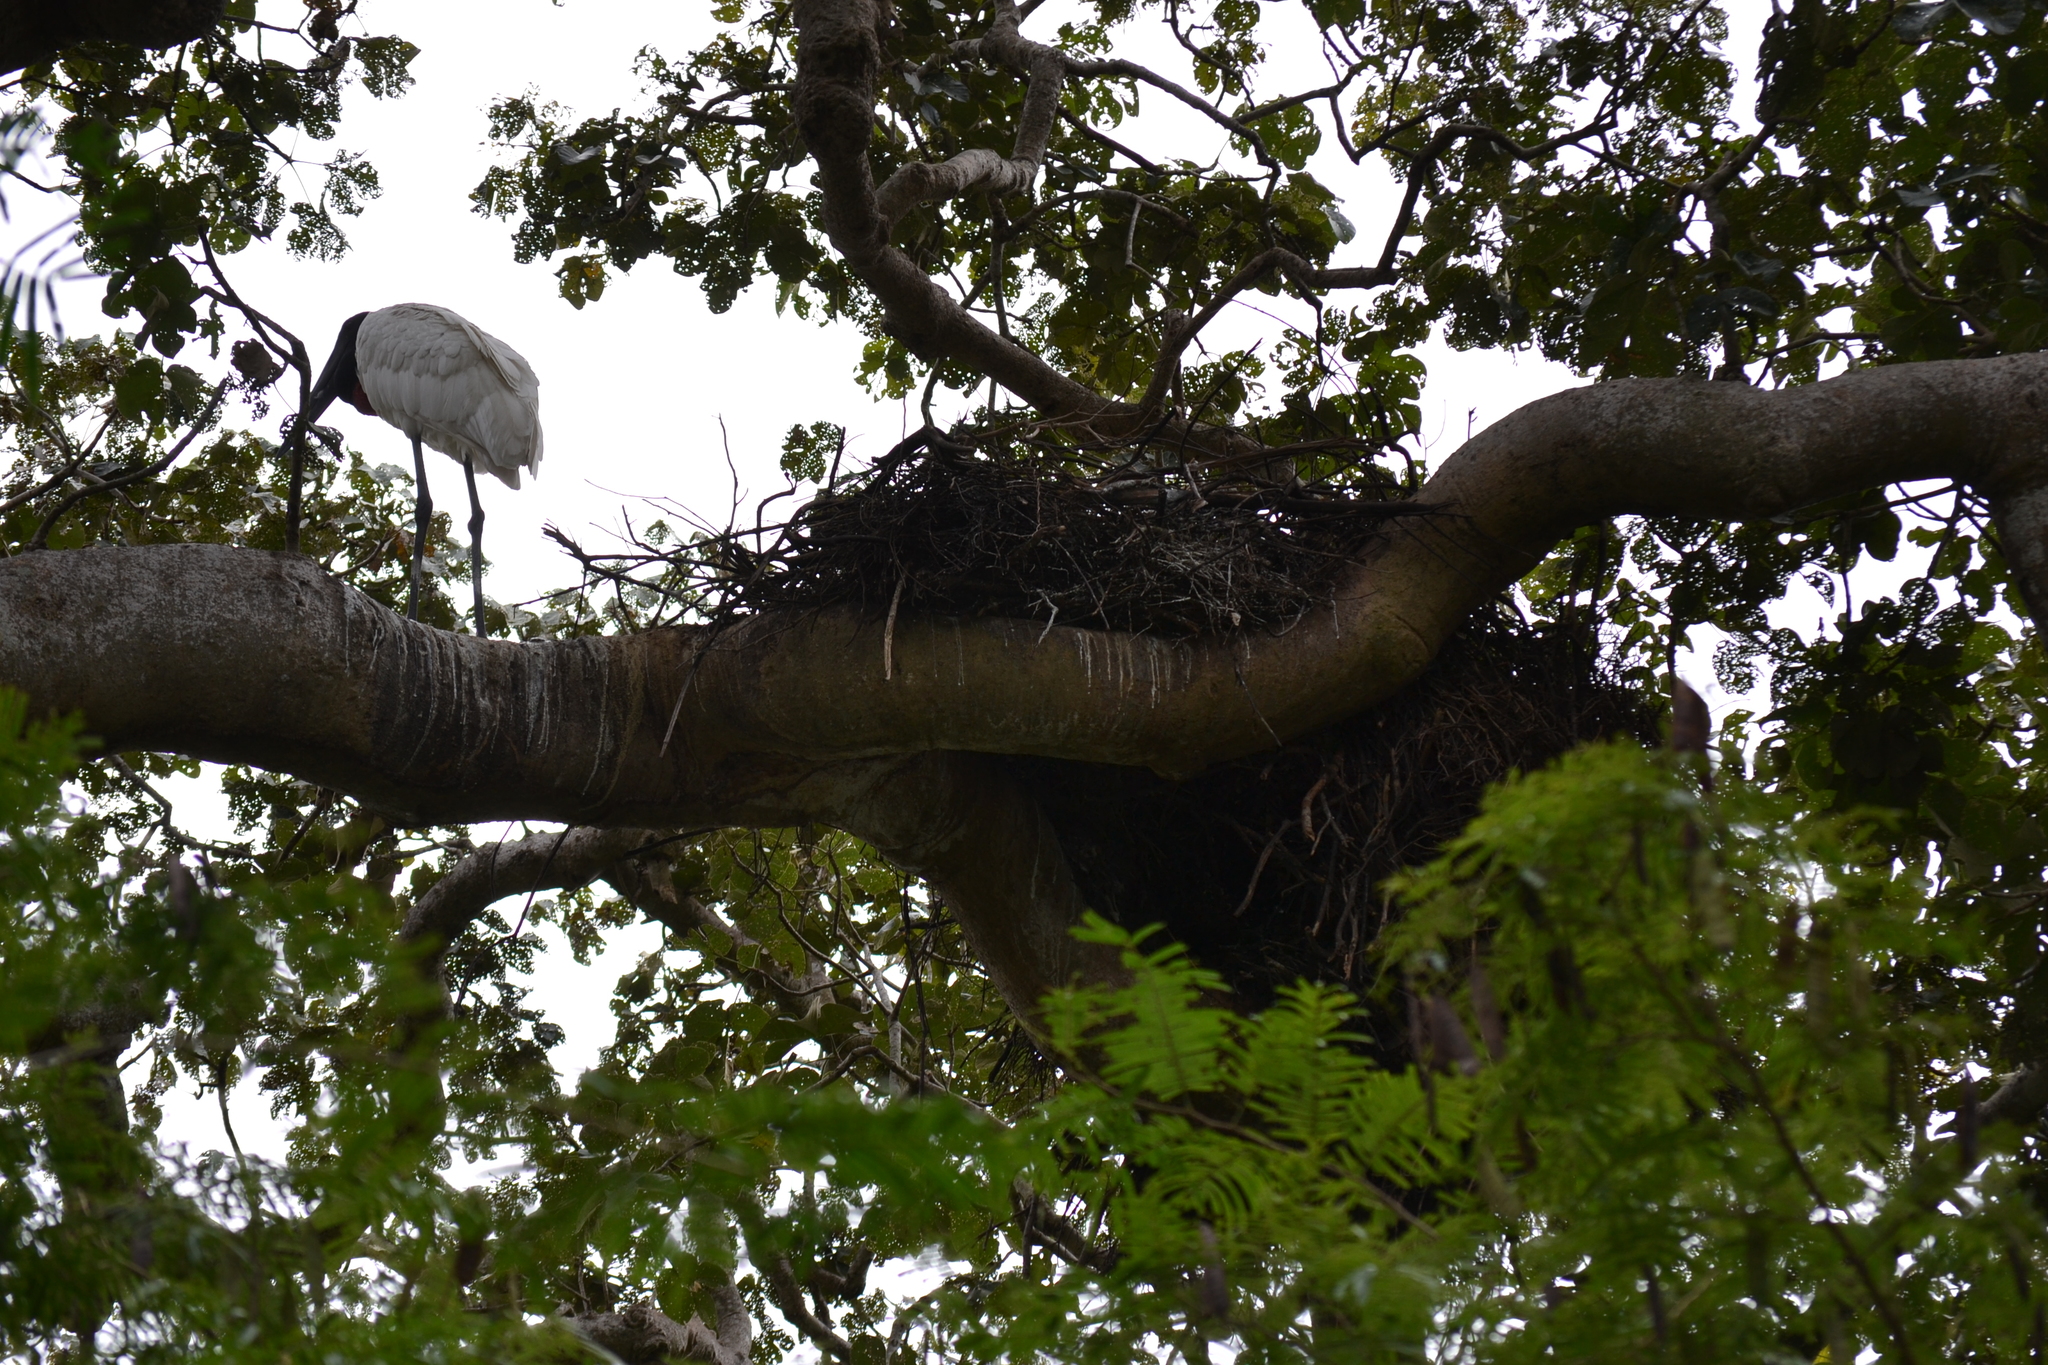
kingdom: Animalia
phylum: Chordata
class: Aves
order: Ciconiiformes
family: Ciconiidae
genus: Jabiru
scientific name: Jabiru mycteria
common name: Jabiru
